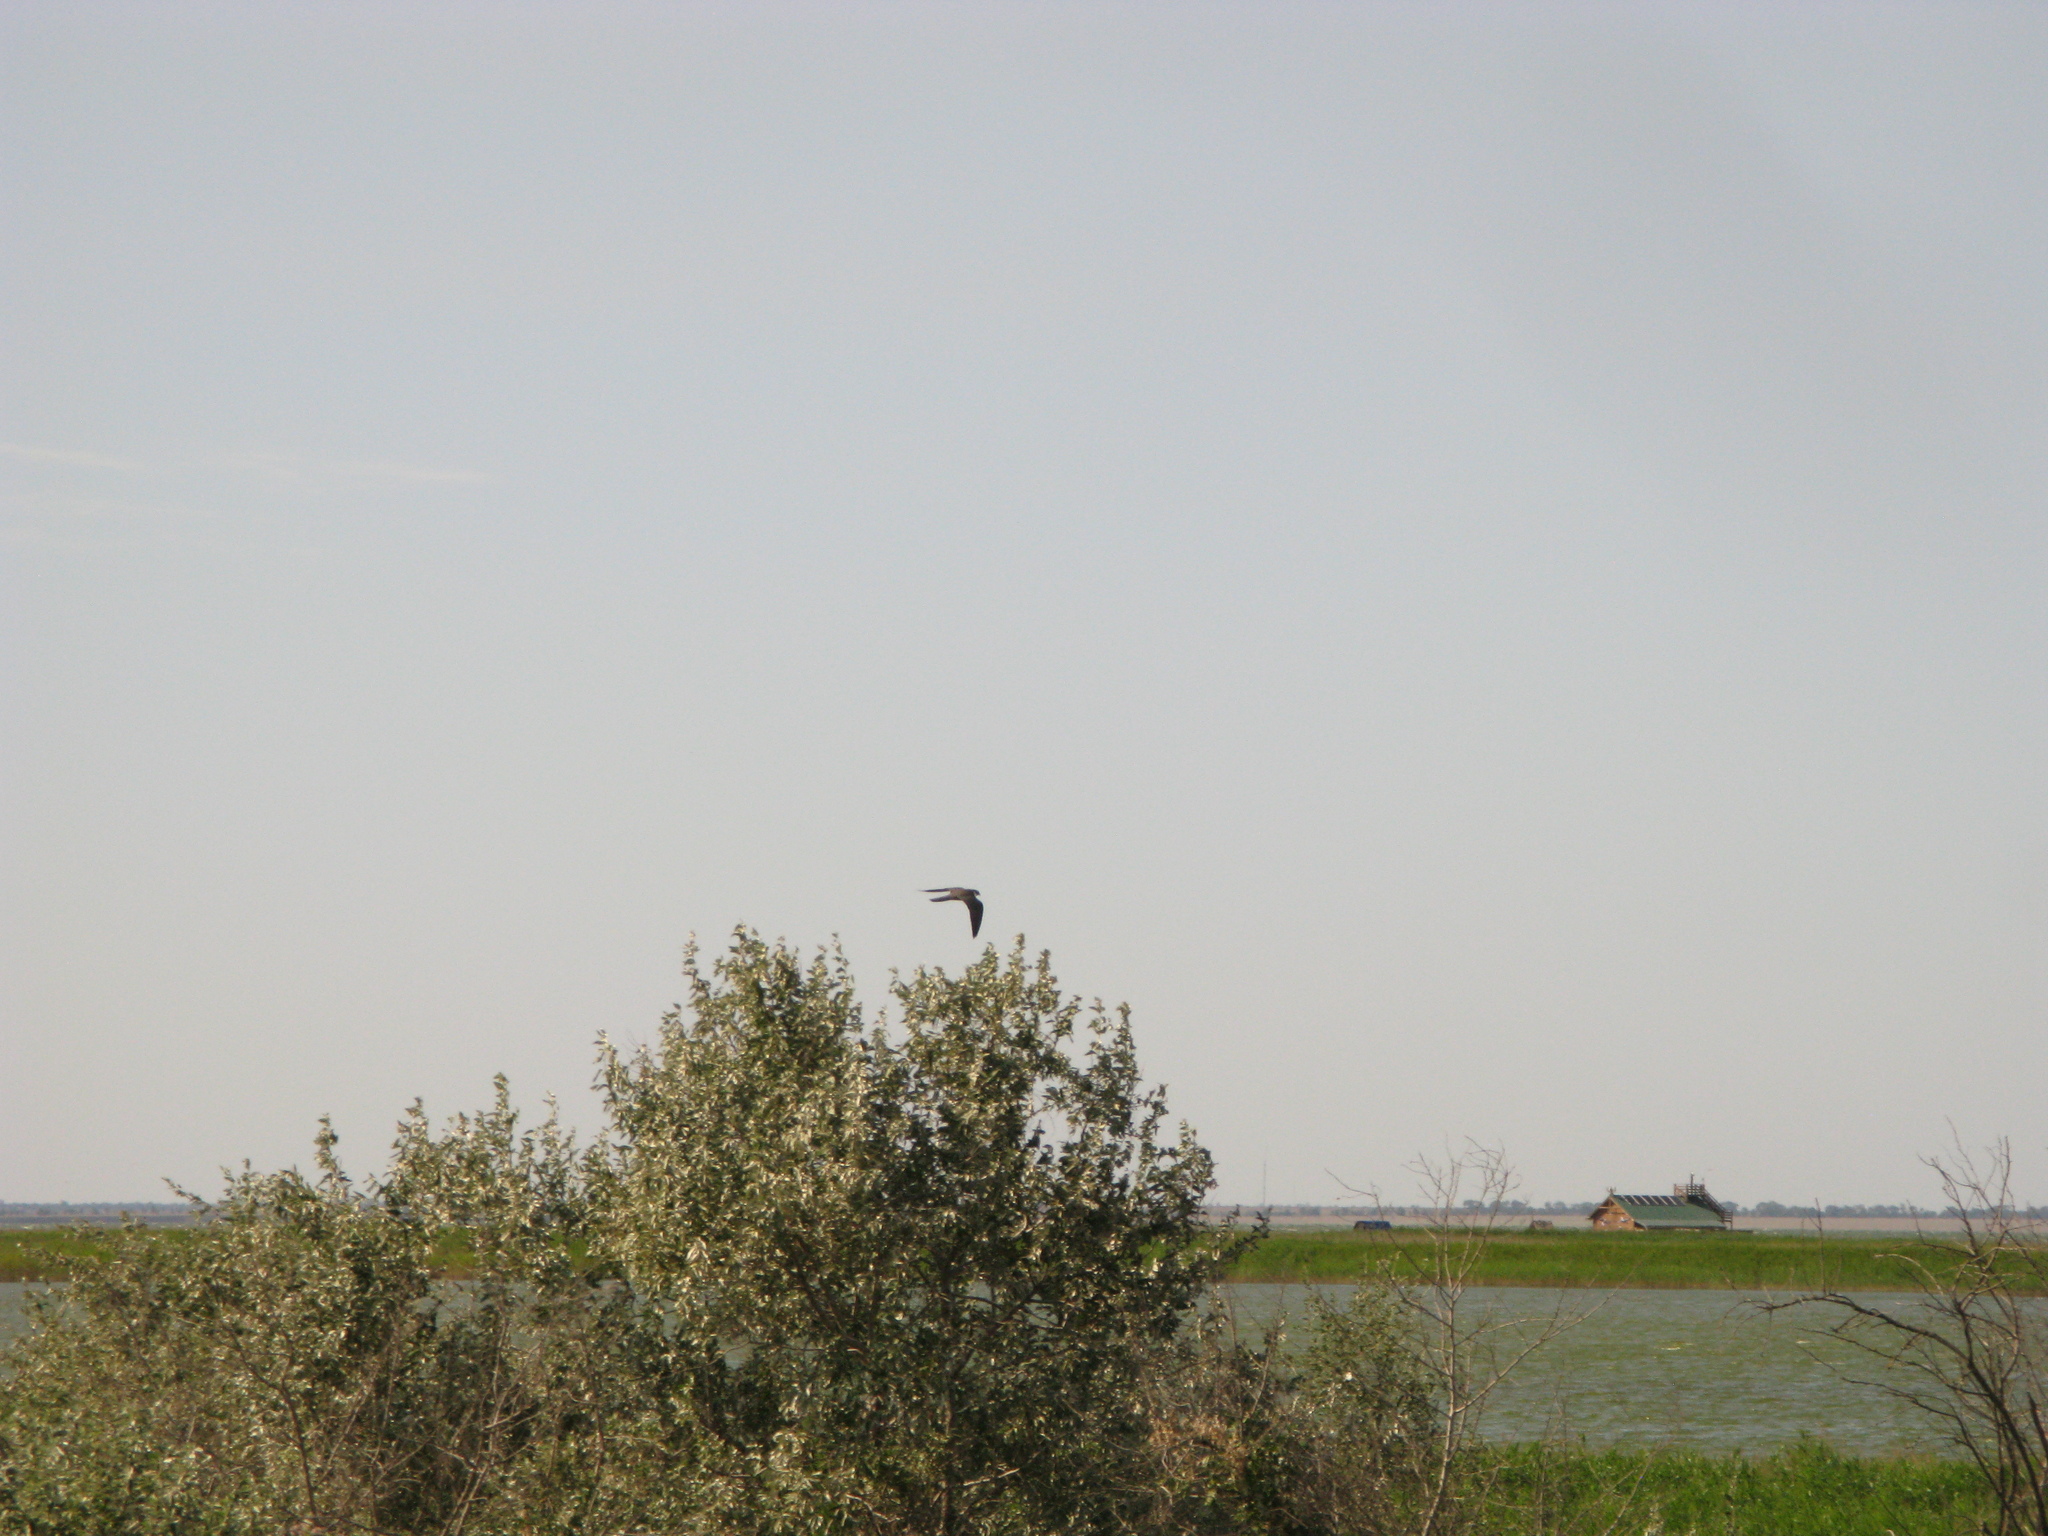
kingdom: Animalia
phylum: Chordata
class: Aves
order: Falconiformes
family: Falconidae
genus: Falco
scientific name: Falco subbuteo
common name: Eurasian hobby
